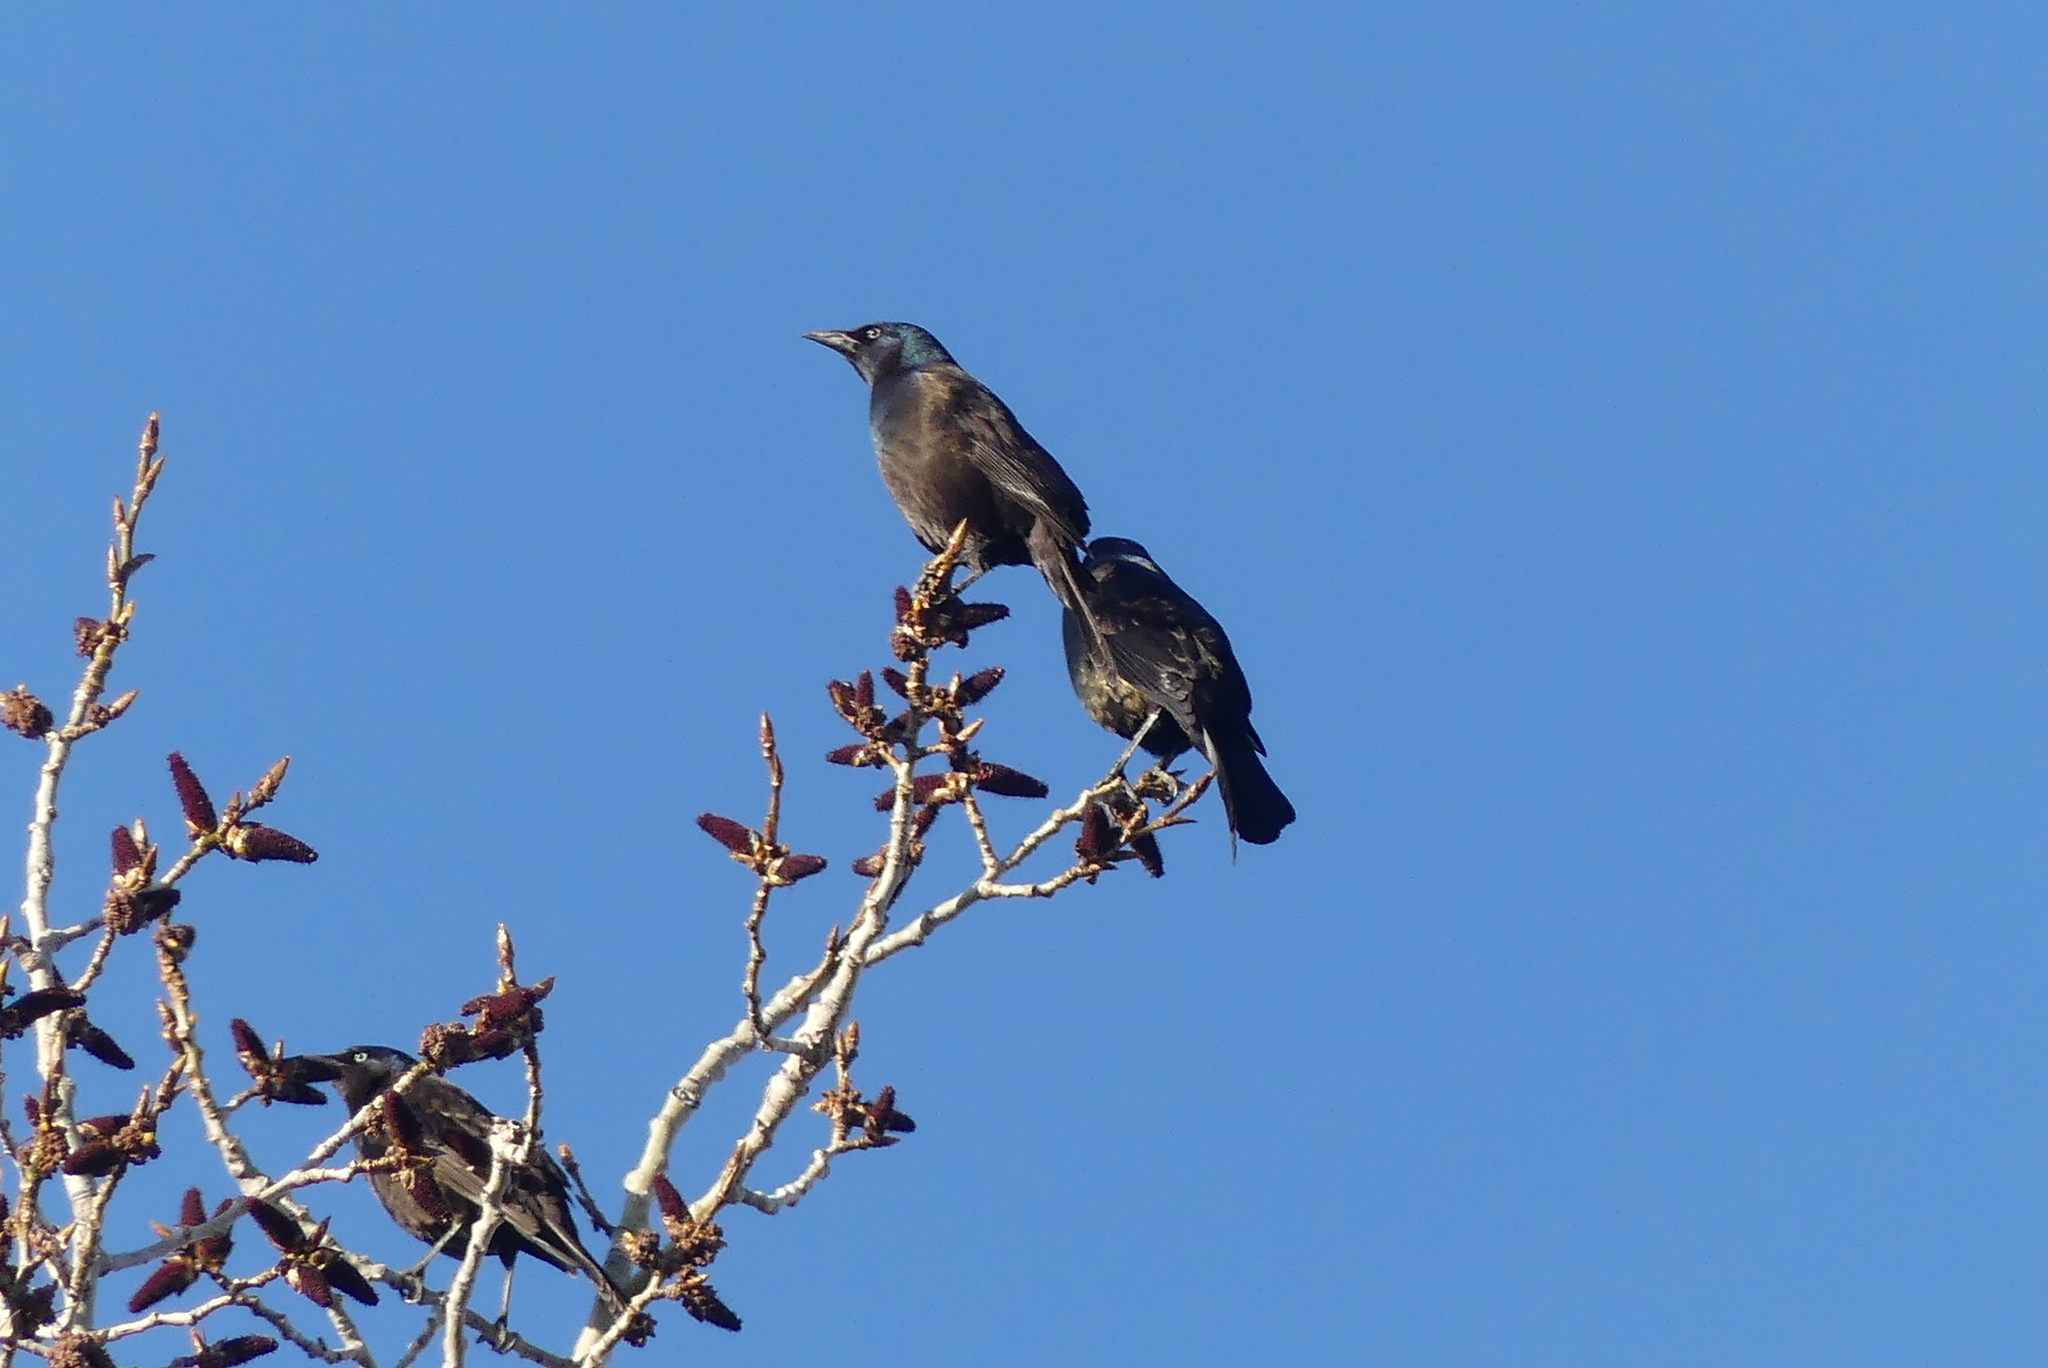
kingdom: Animalia
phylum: Chordata
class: Aves
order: Passeriformes
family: Icteridae
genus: Quiscalus
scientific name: Quiscalus quiscula
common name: Common grackle
